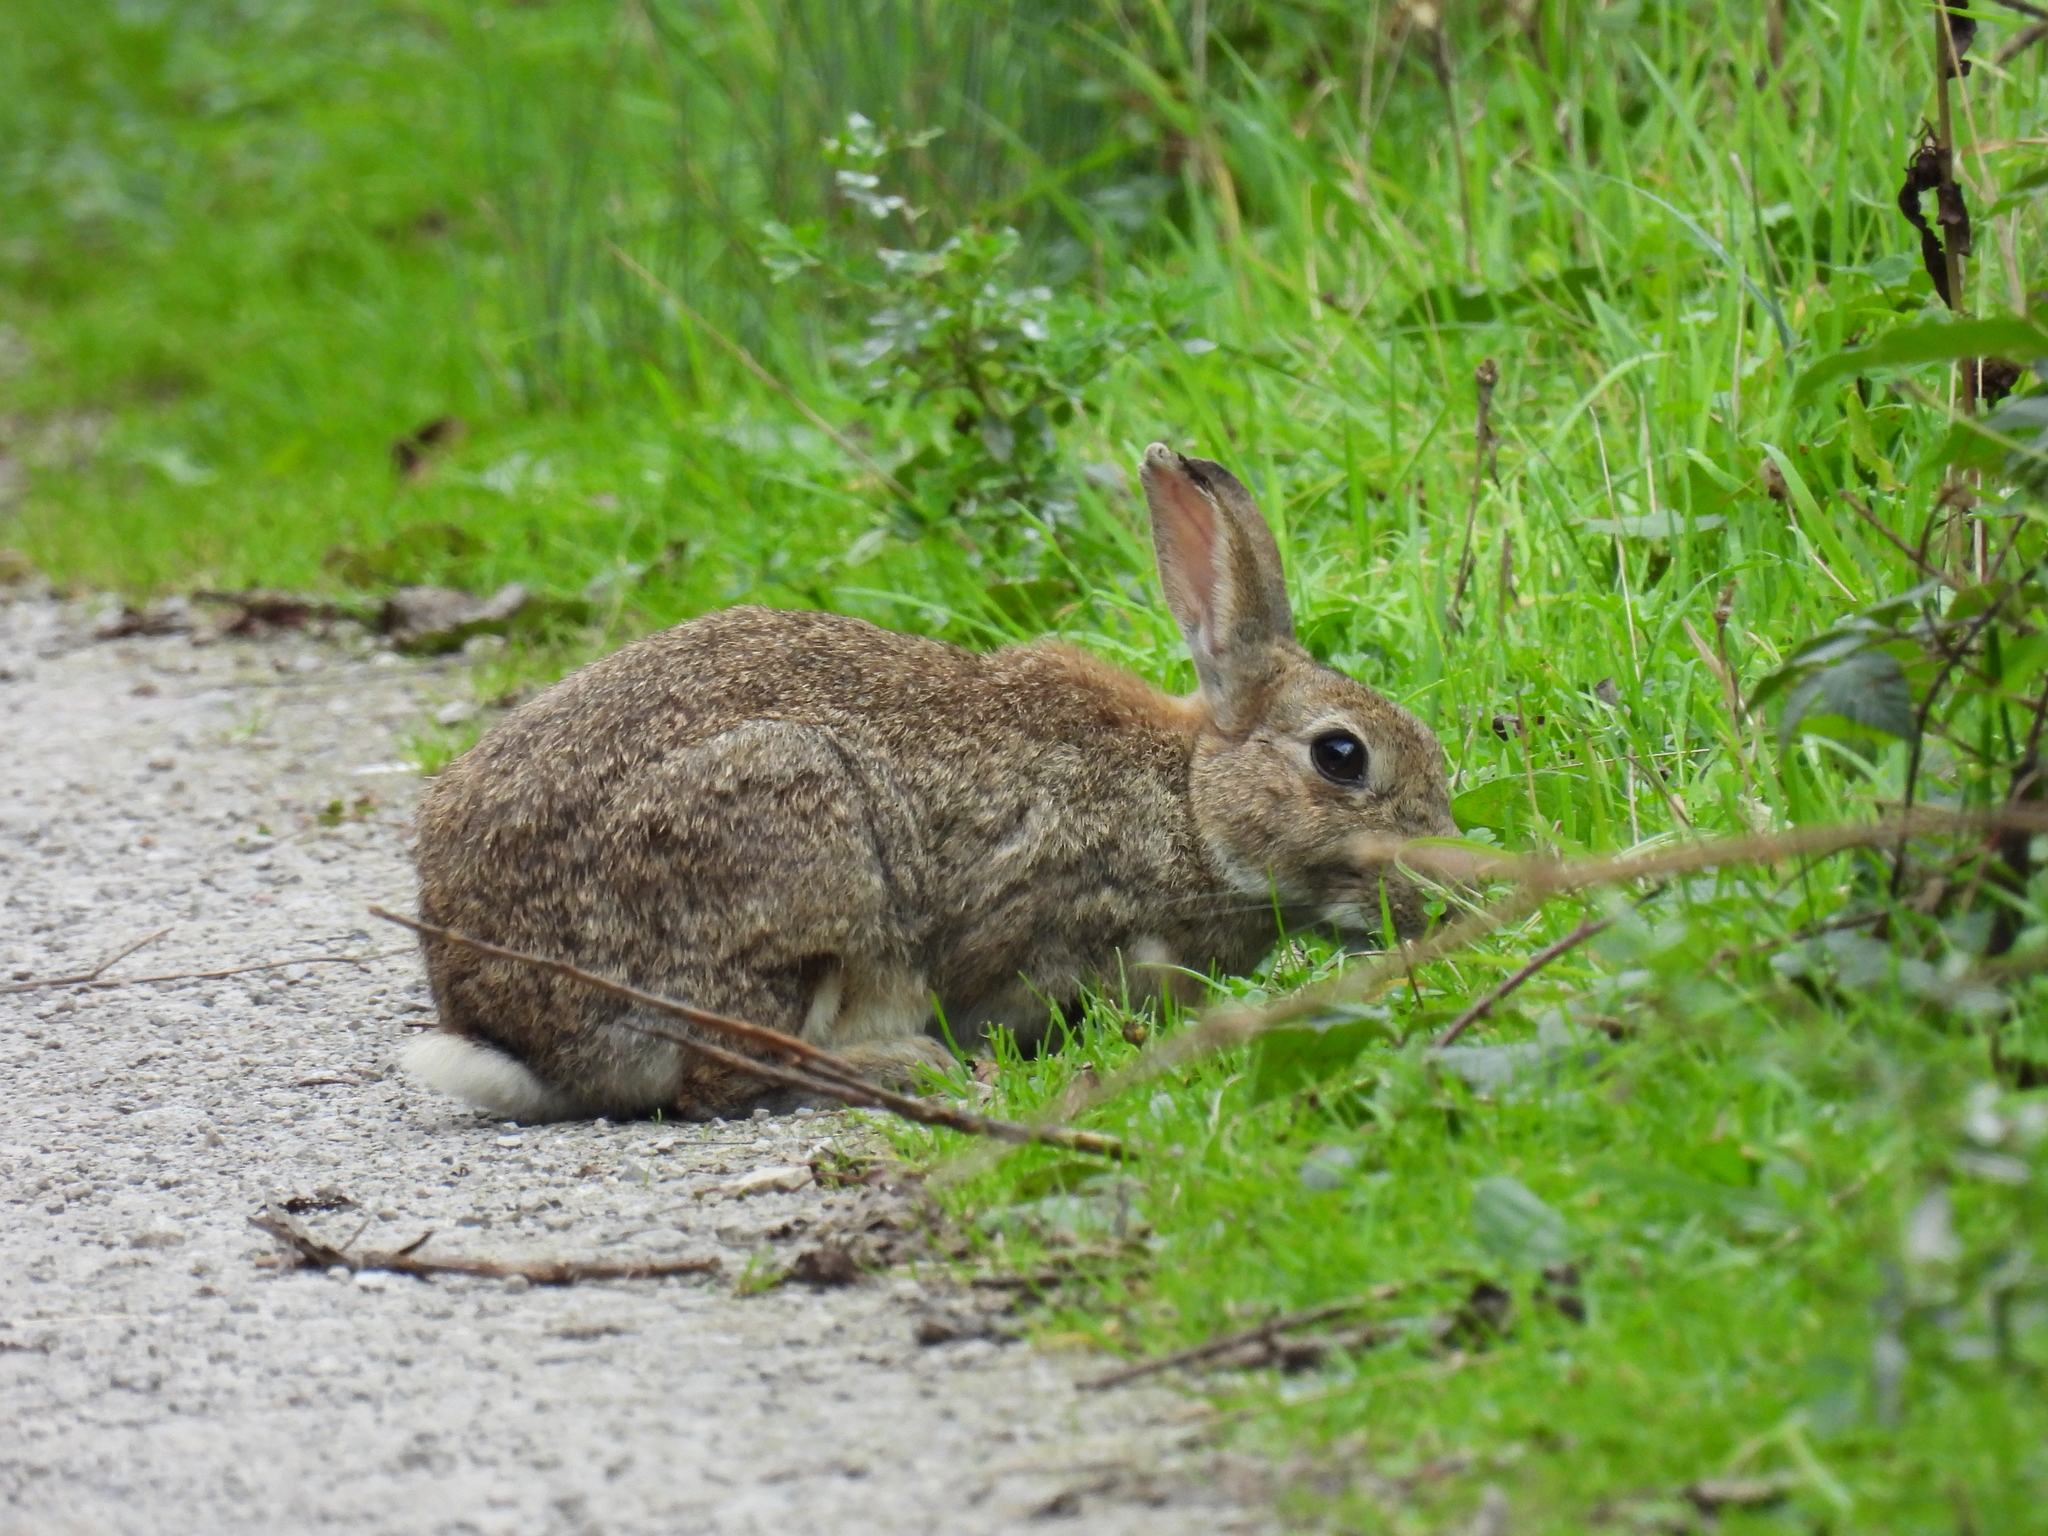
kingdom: Animalia
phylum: Chordata
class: Mammalia
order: Lagomorpha
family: Leporidae
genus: Oryctolagus
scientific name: Oryctolagus cuniculus
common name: European rabbit
